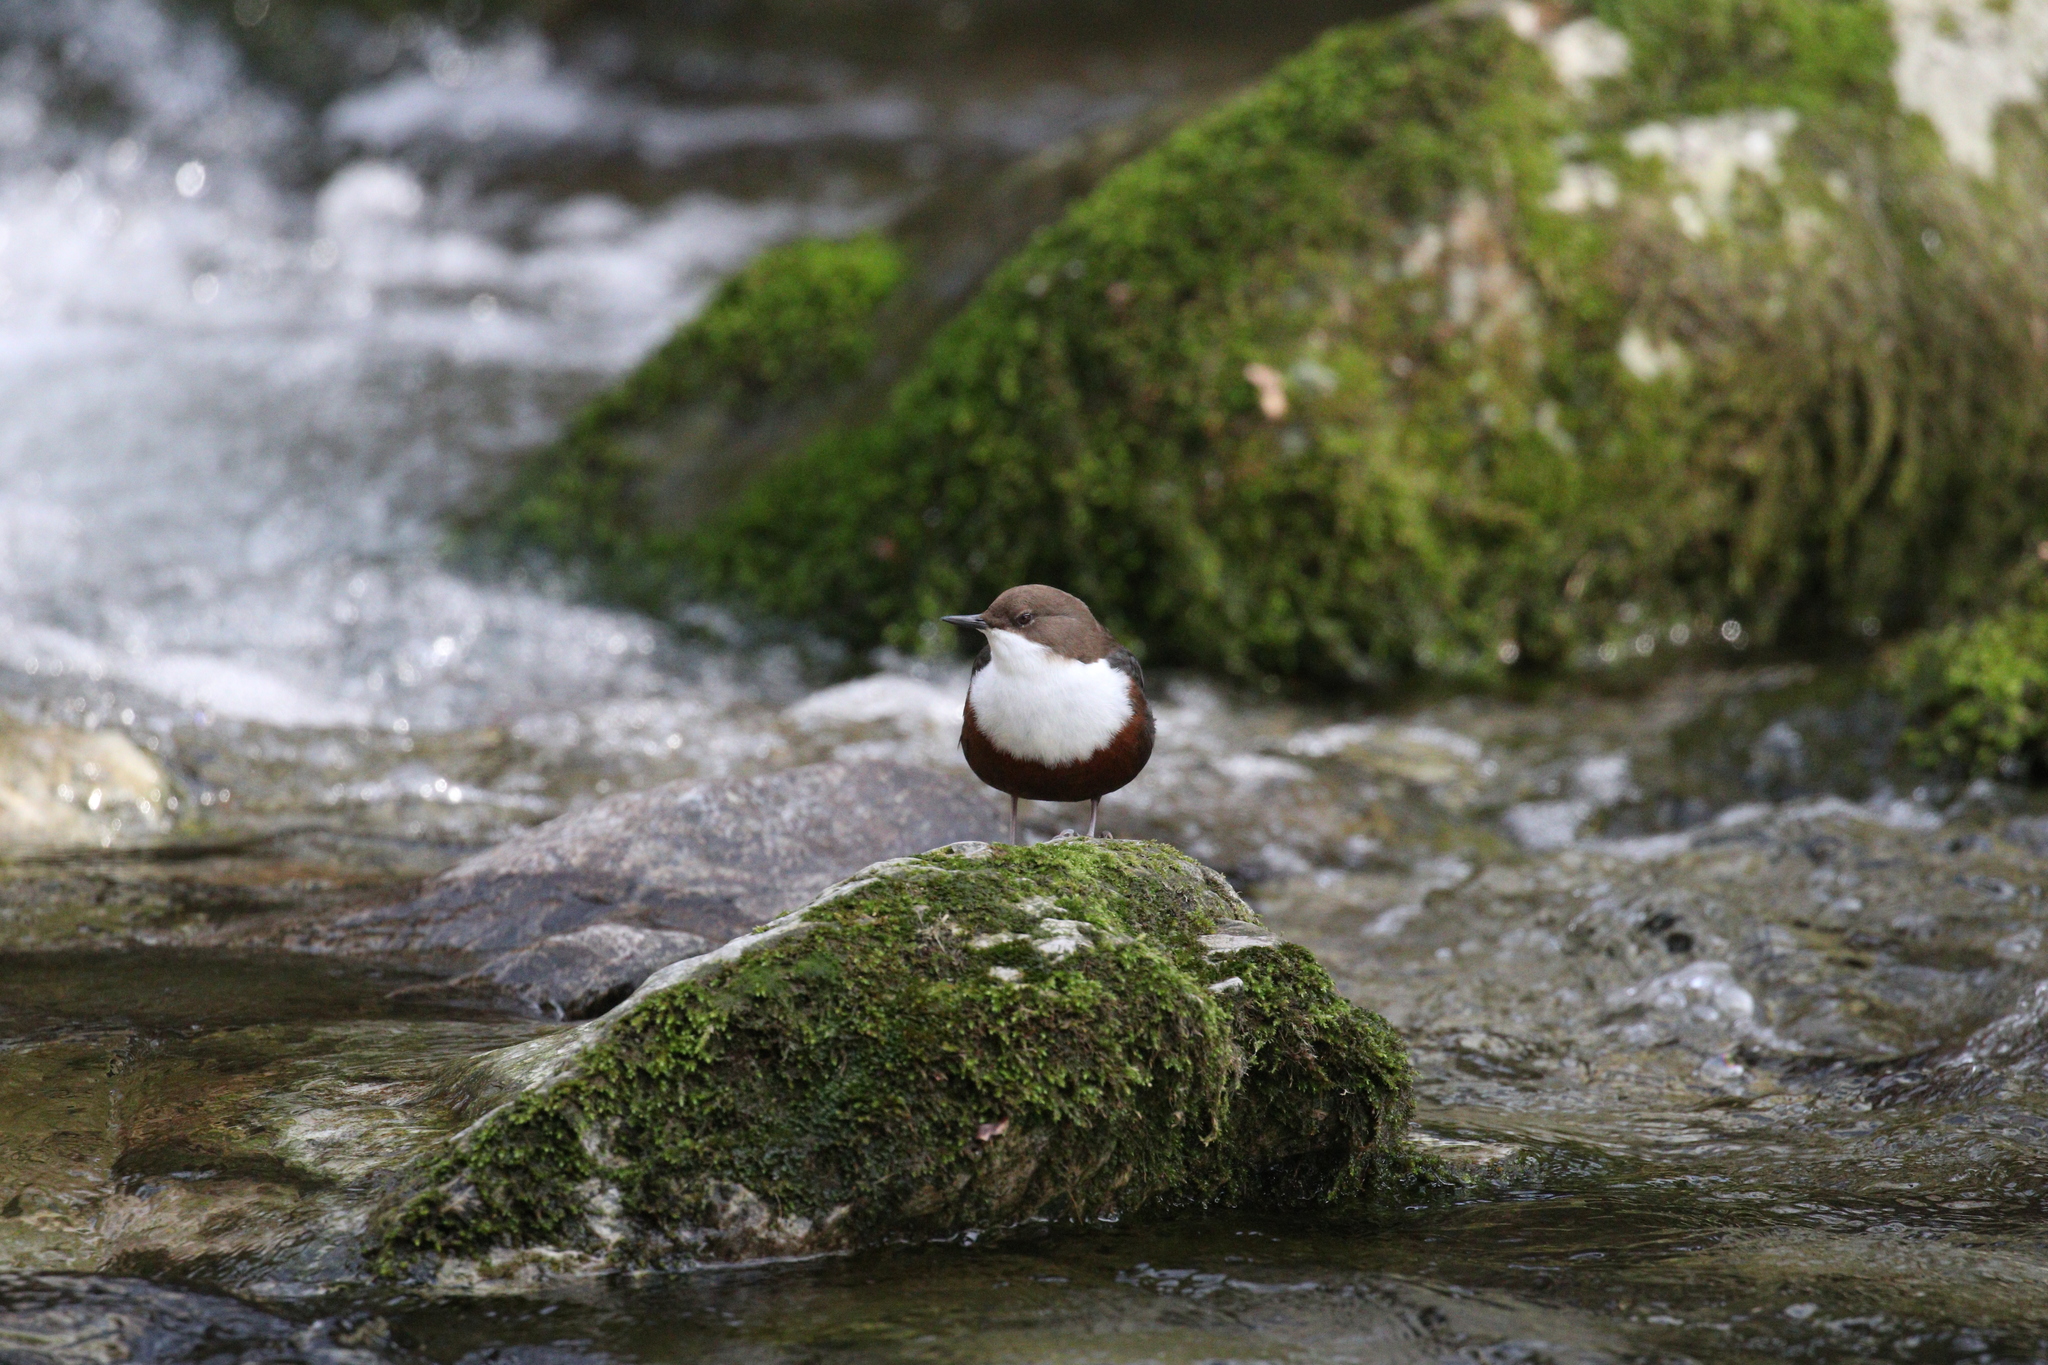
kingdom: Animalia
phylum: Chordata
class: Aves
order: Passeriformes
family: Cinclidae
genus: Cinclus
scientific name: Cinclus cinclus
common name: White-throated dipper
